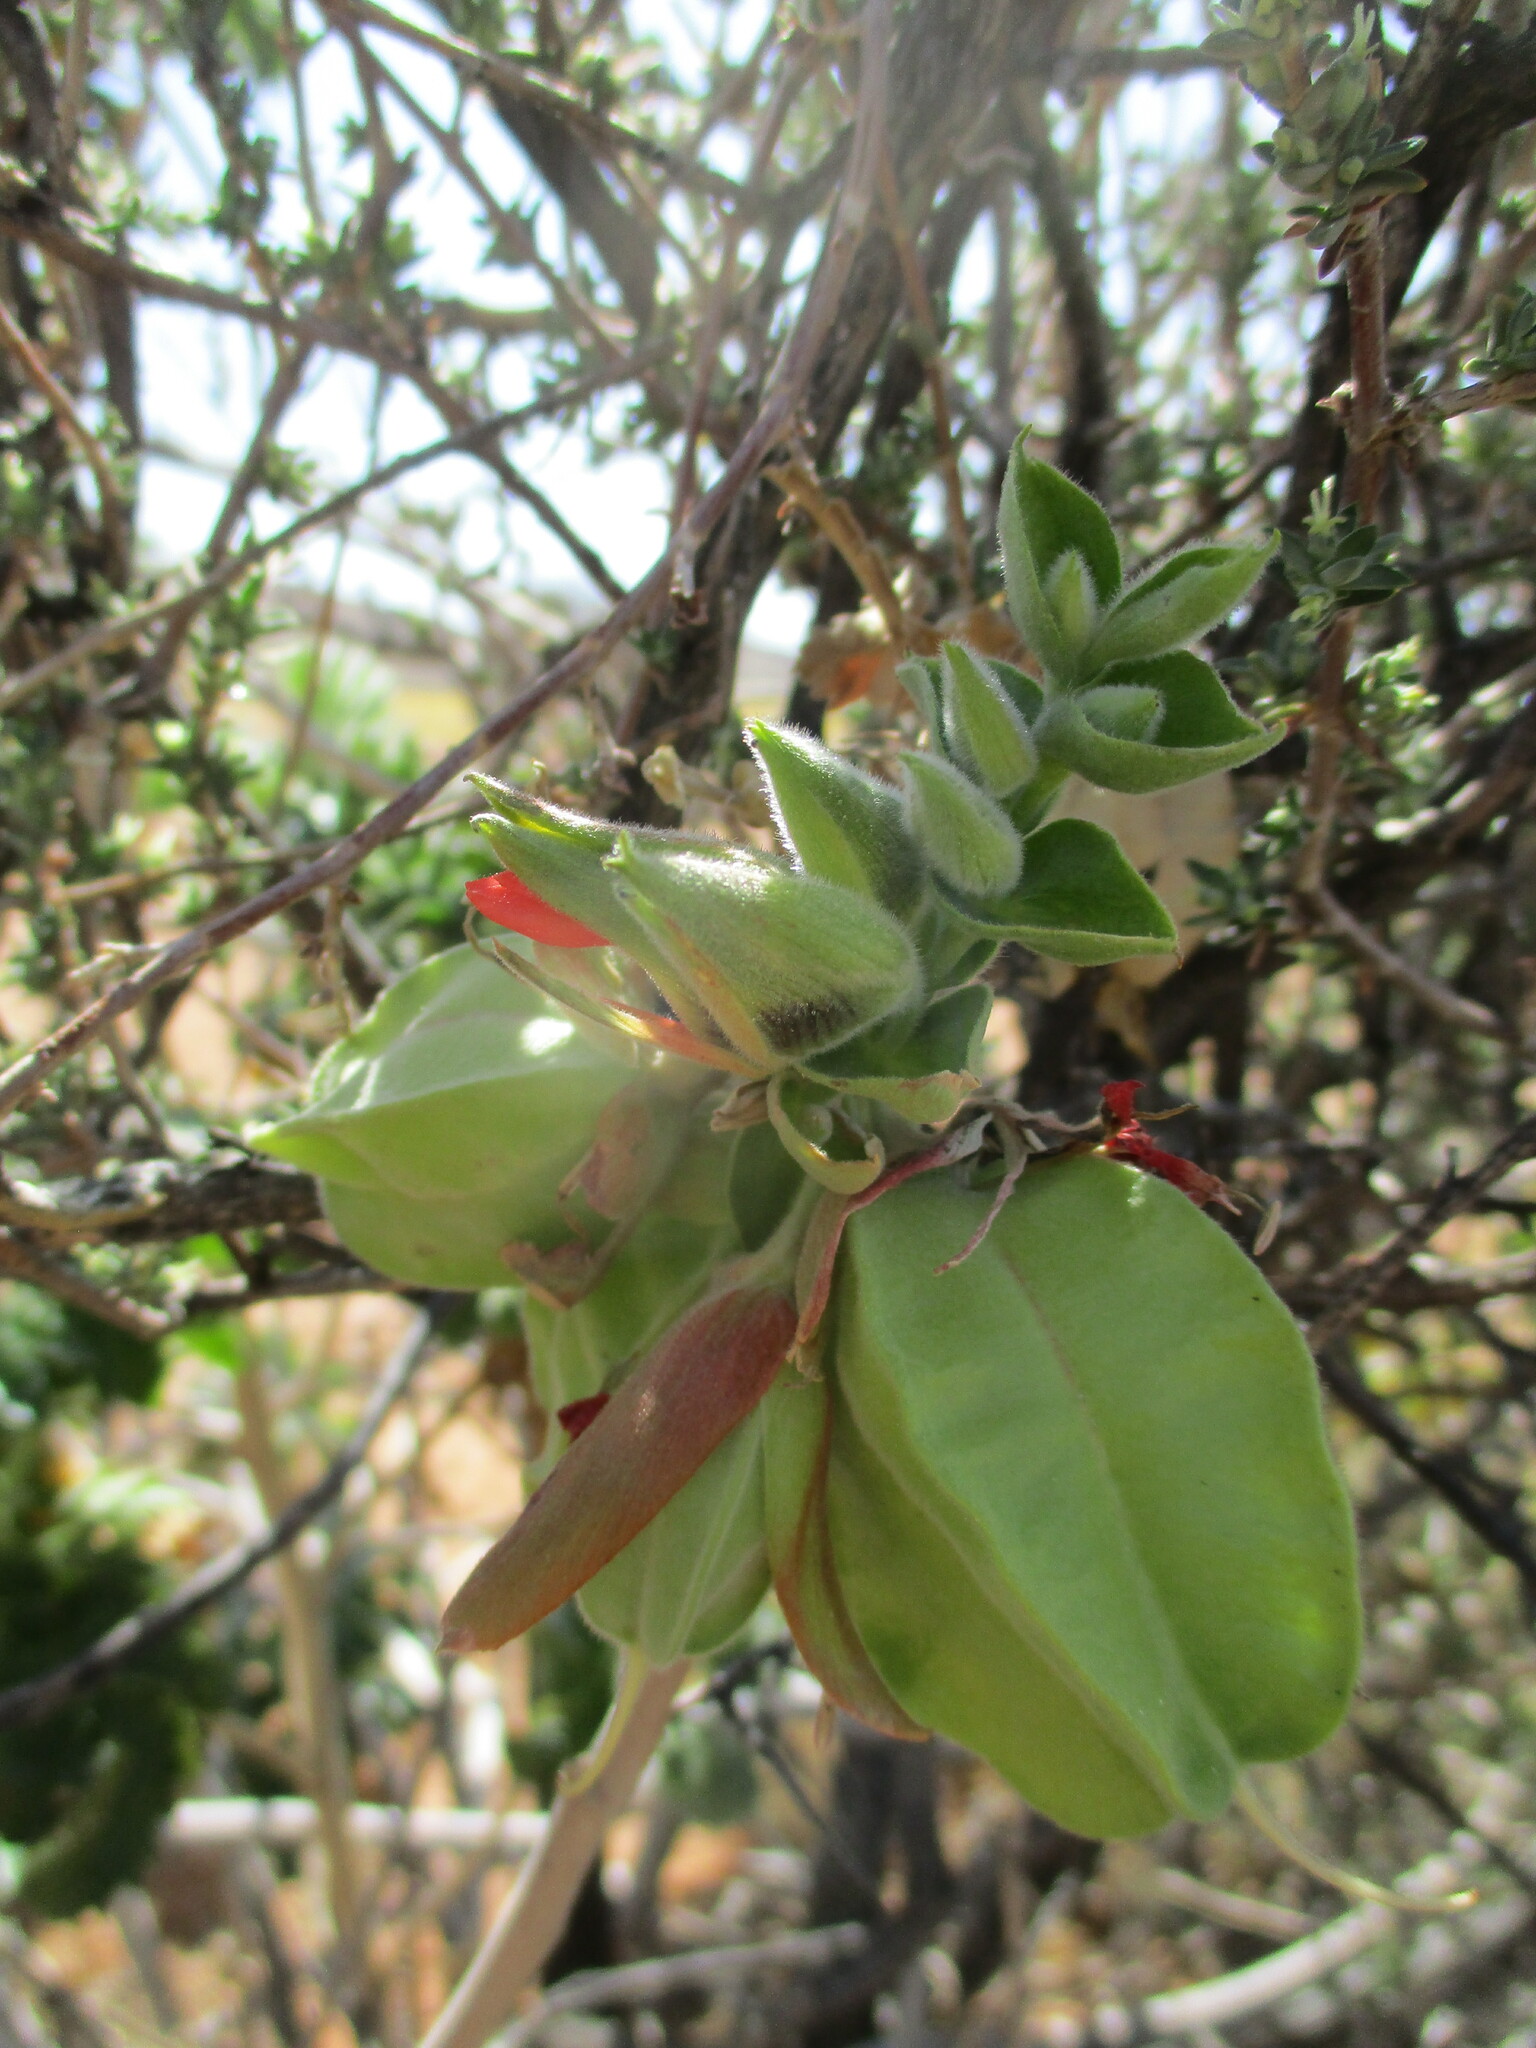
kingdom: Plantae
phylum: Tracheophyta
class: Magnoliopsida
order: Geraniales
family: Melianthaceae
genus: Melianthus
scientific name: Melianthus comosus
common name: Touch-me-not
